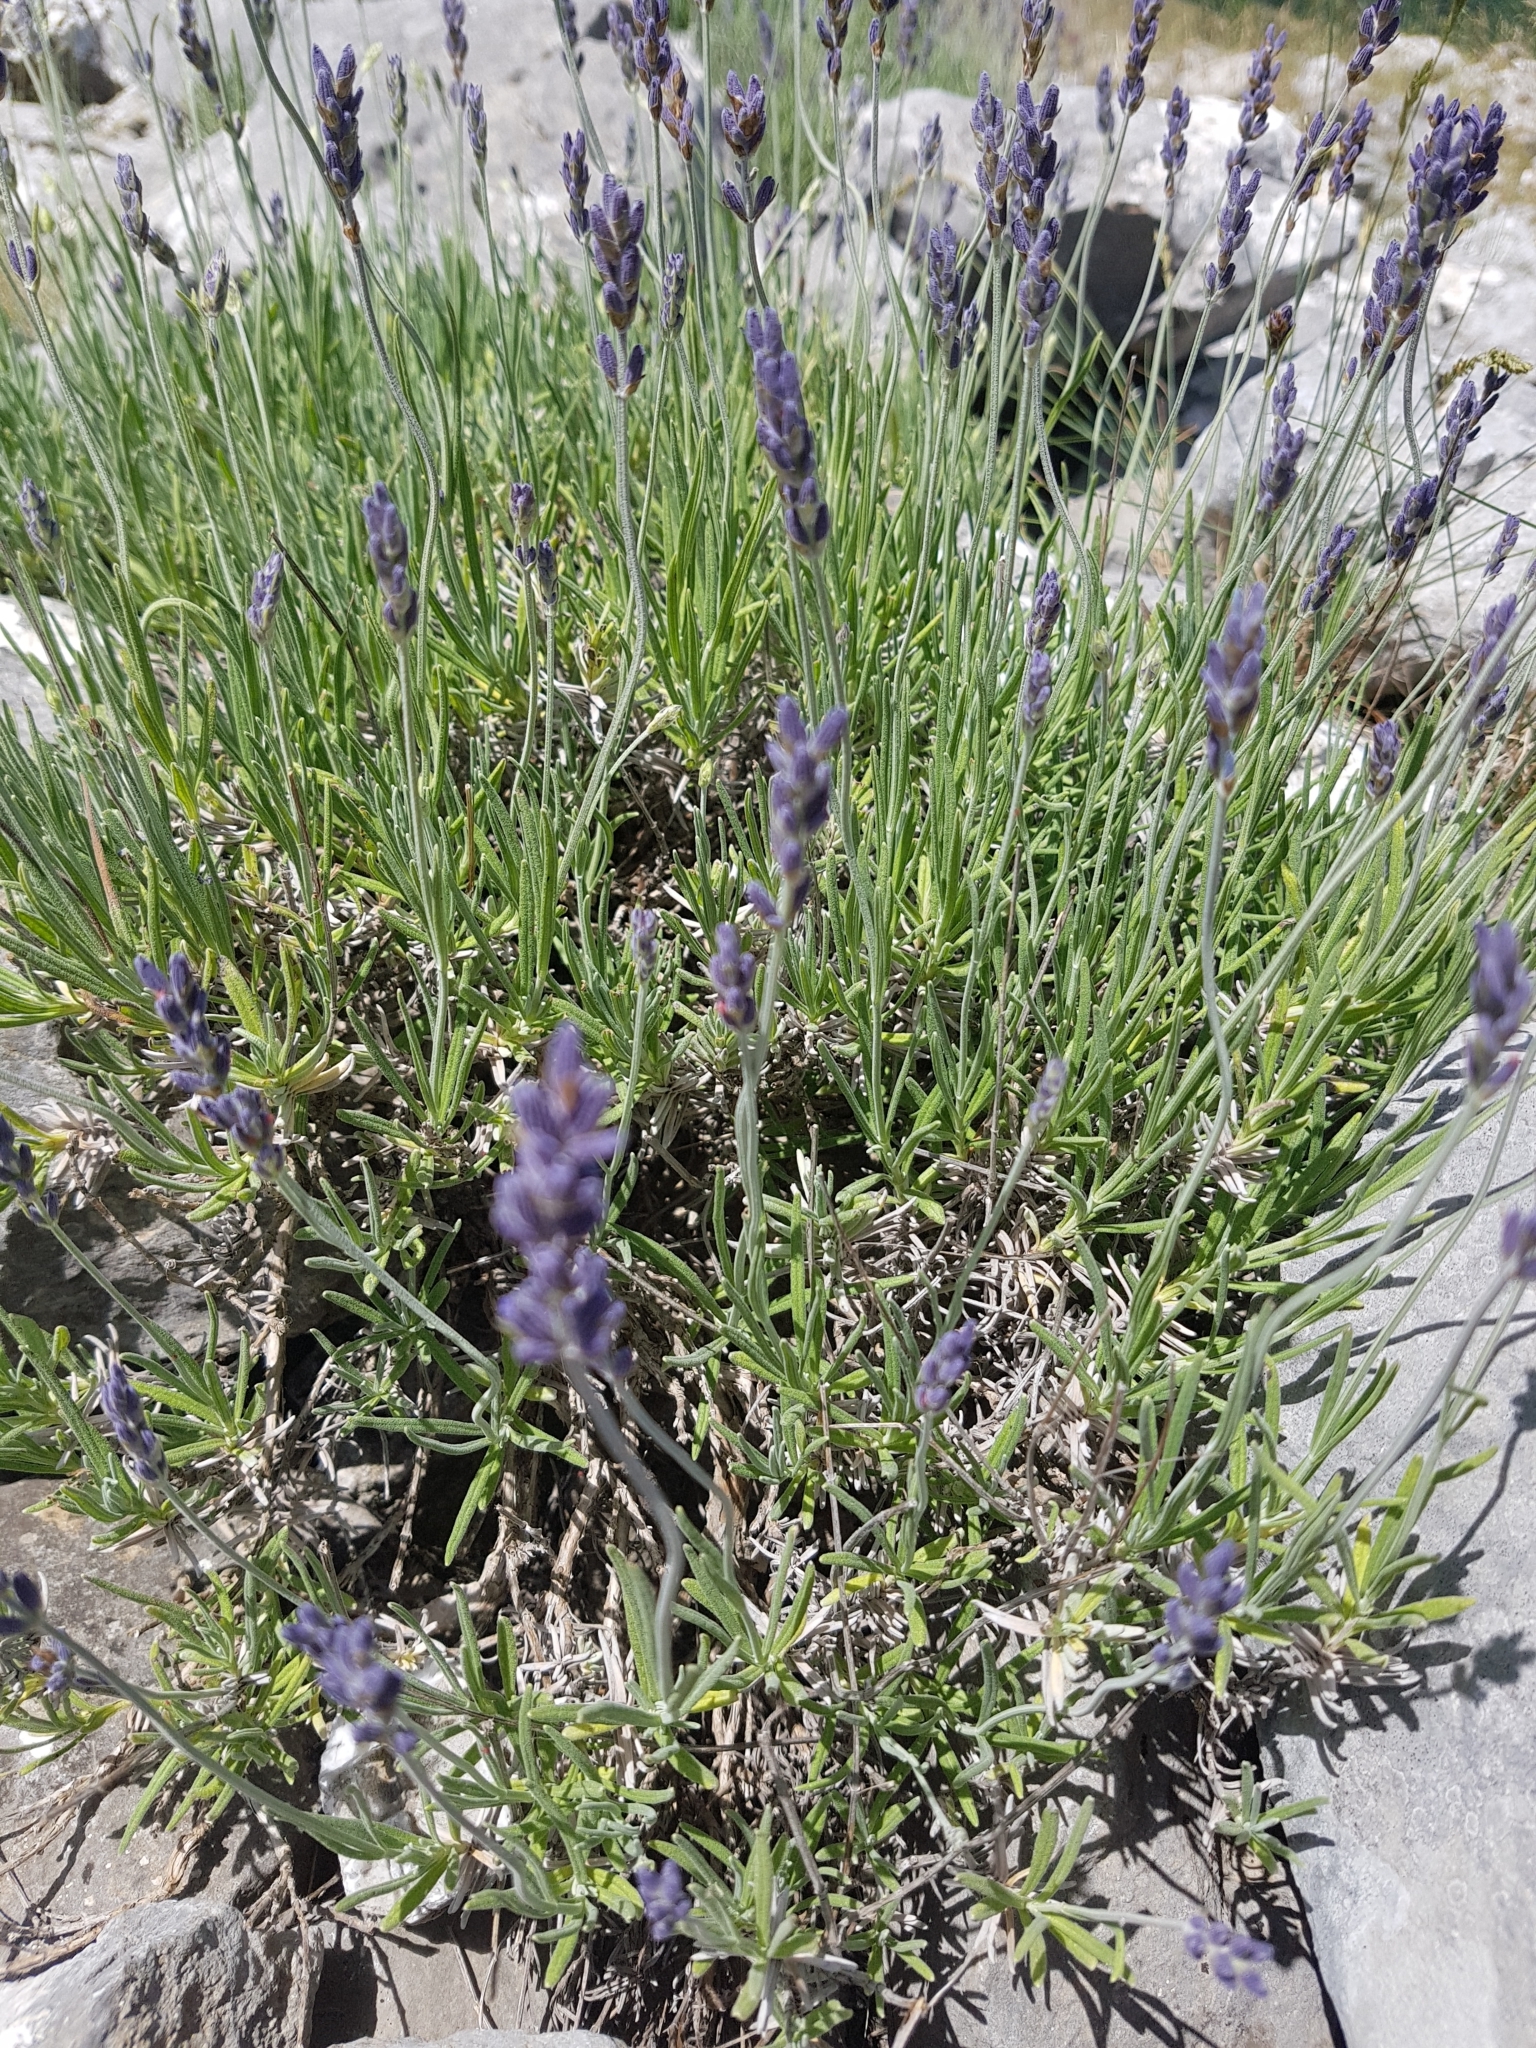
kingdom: Plantae
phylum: Tracheophyta
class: Magnoliopsida
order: Lamiales
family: Lamiaceae
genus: Lavandula
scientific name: Lavandula angustifolia
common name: Garden lavender
